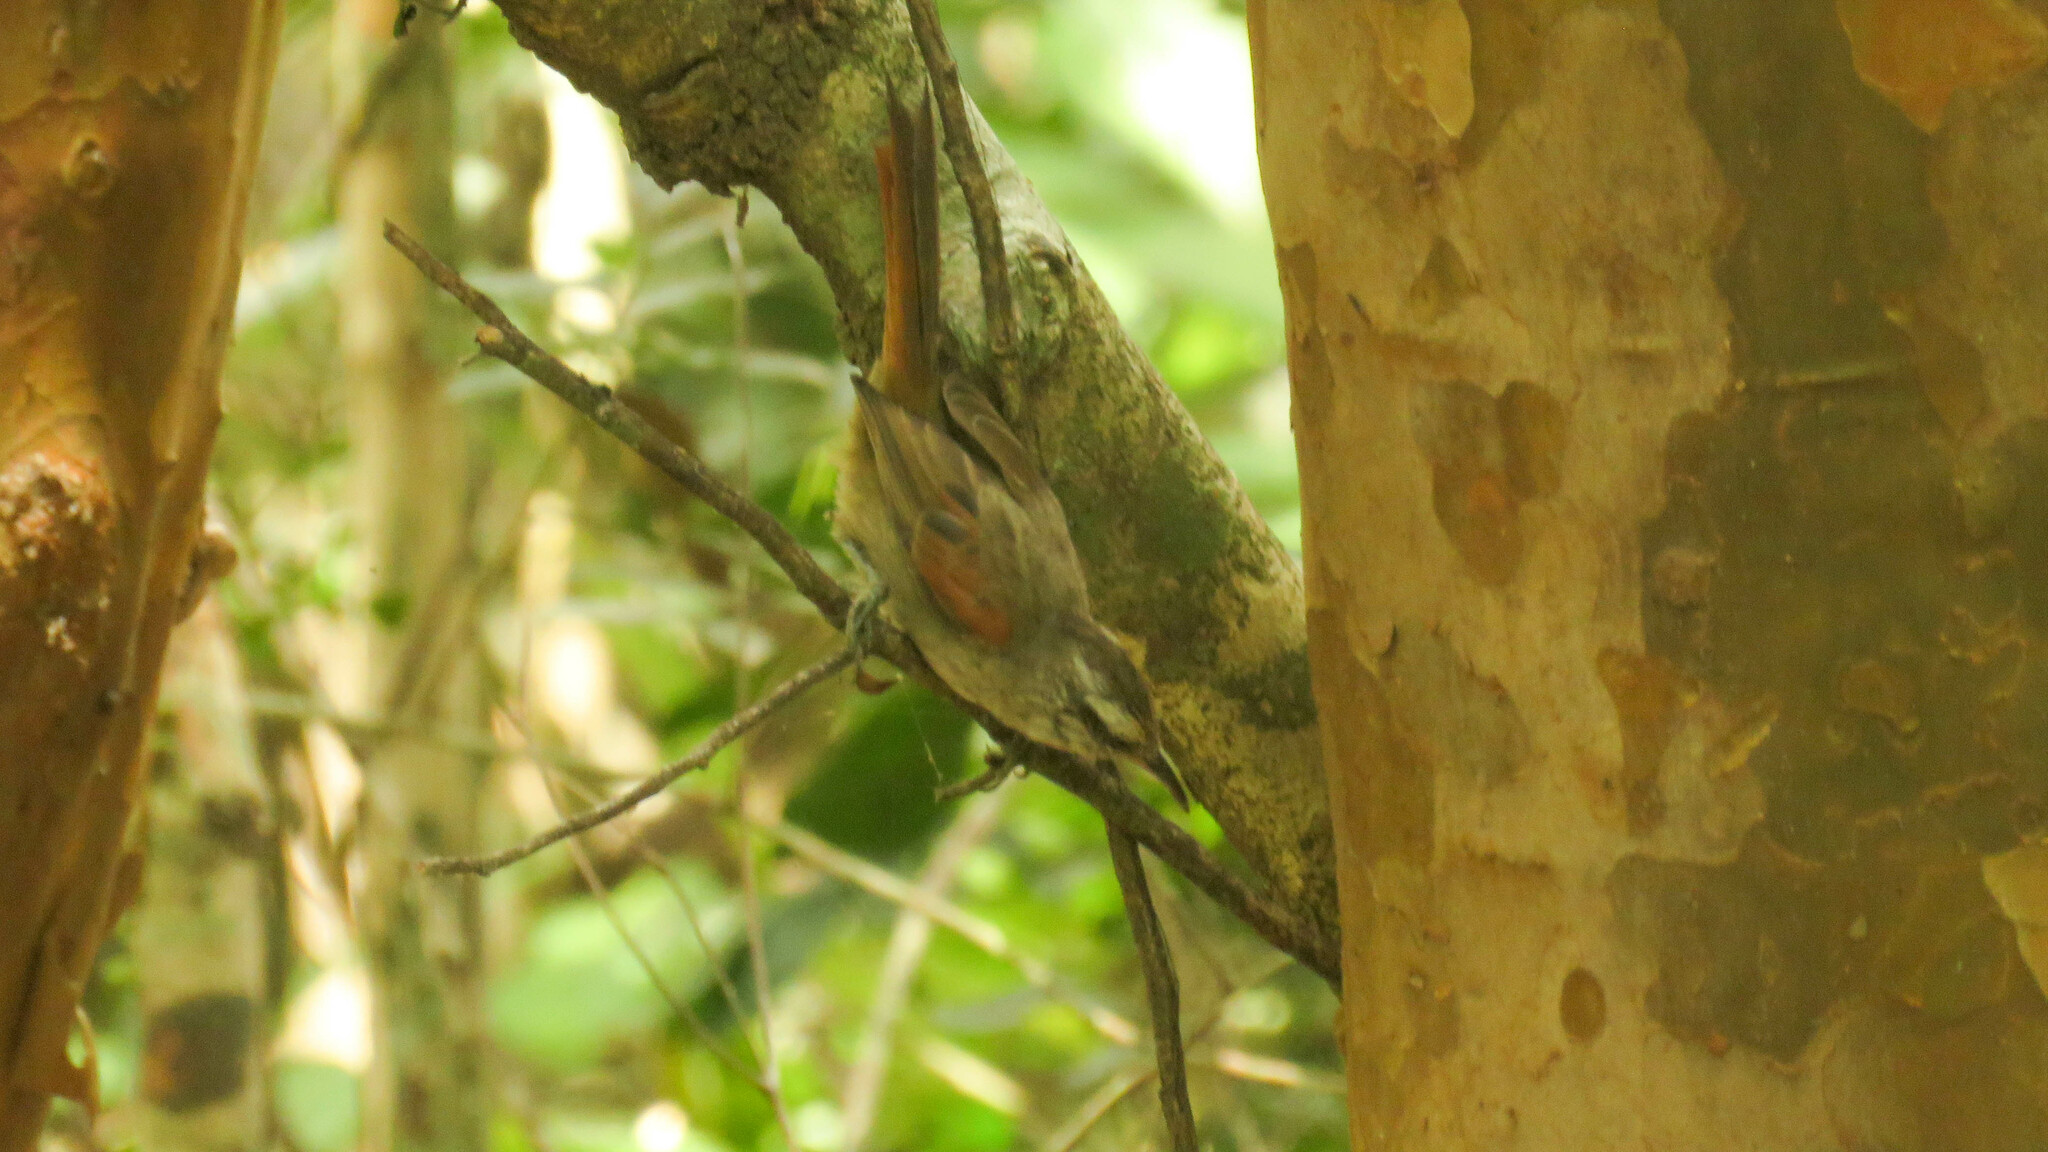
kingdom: Animalia
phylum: Chordata
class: Aves
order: Passeriformes
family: Furnariidae
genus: Cranioleuca
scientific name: Cranioleuca pyrrhophia
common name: Stripe-crowned spinetail
